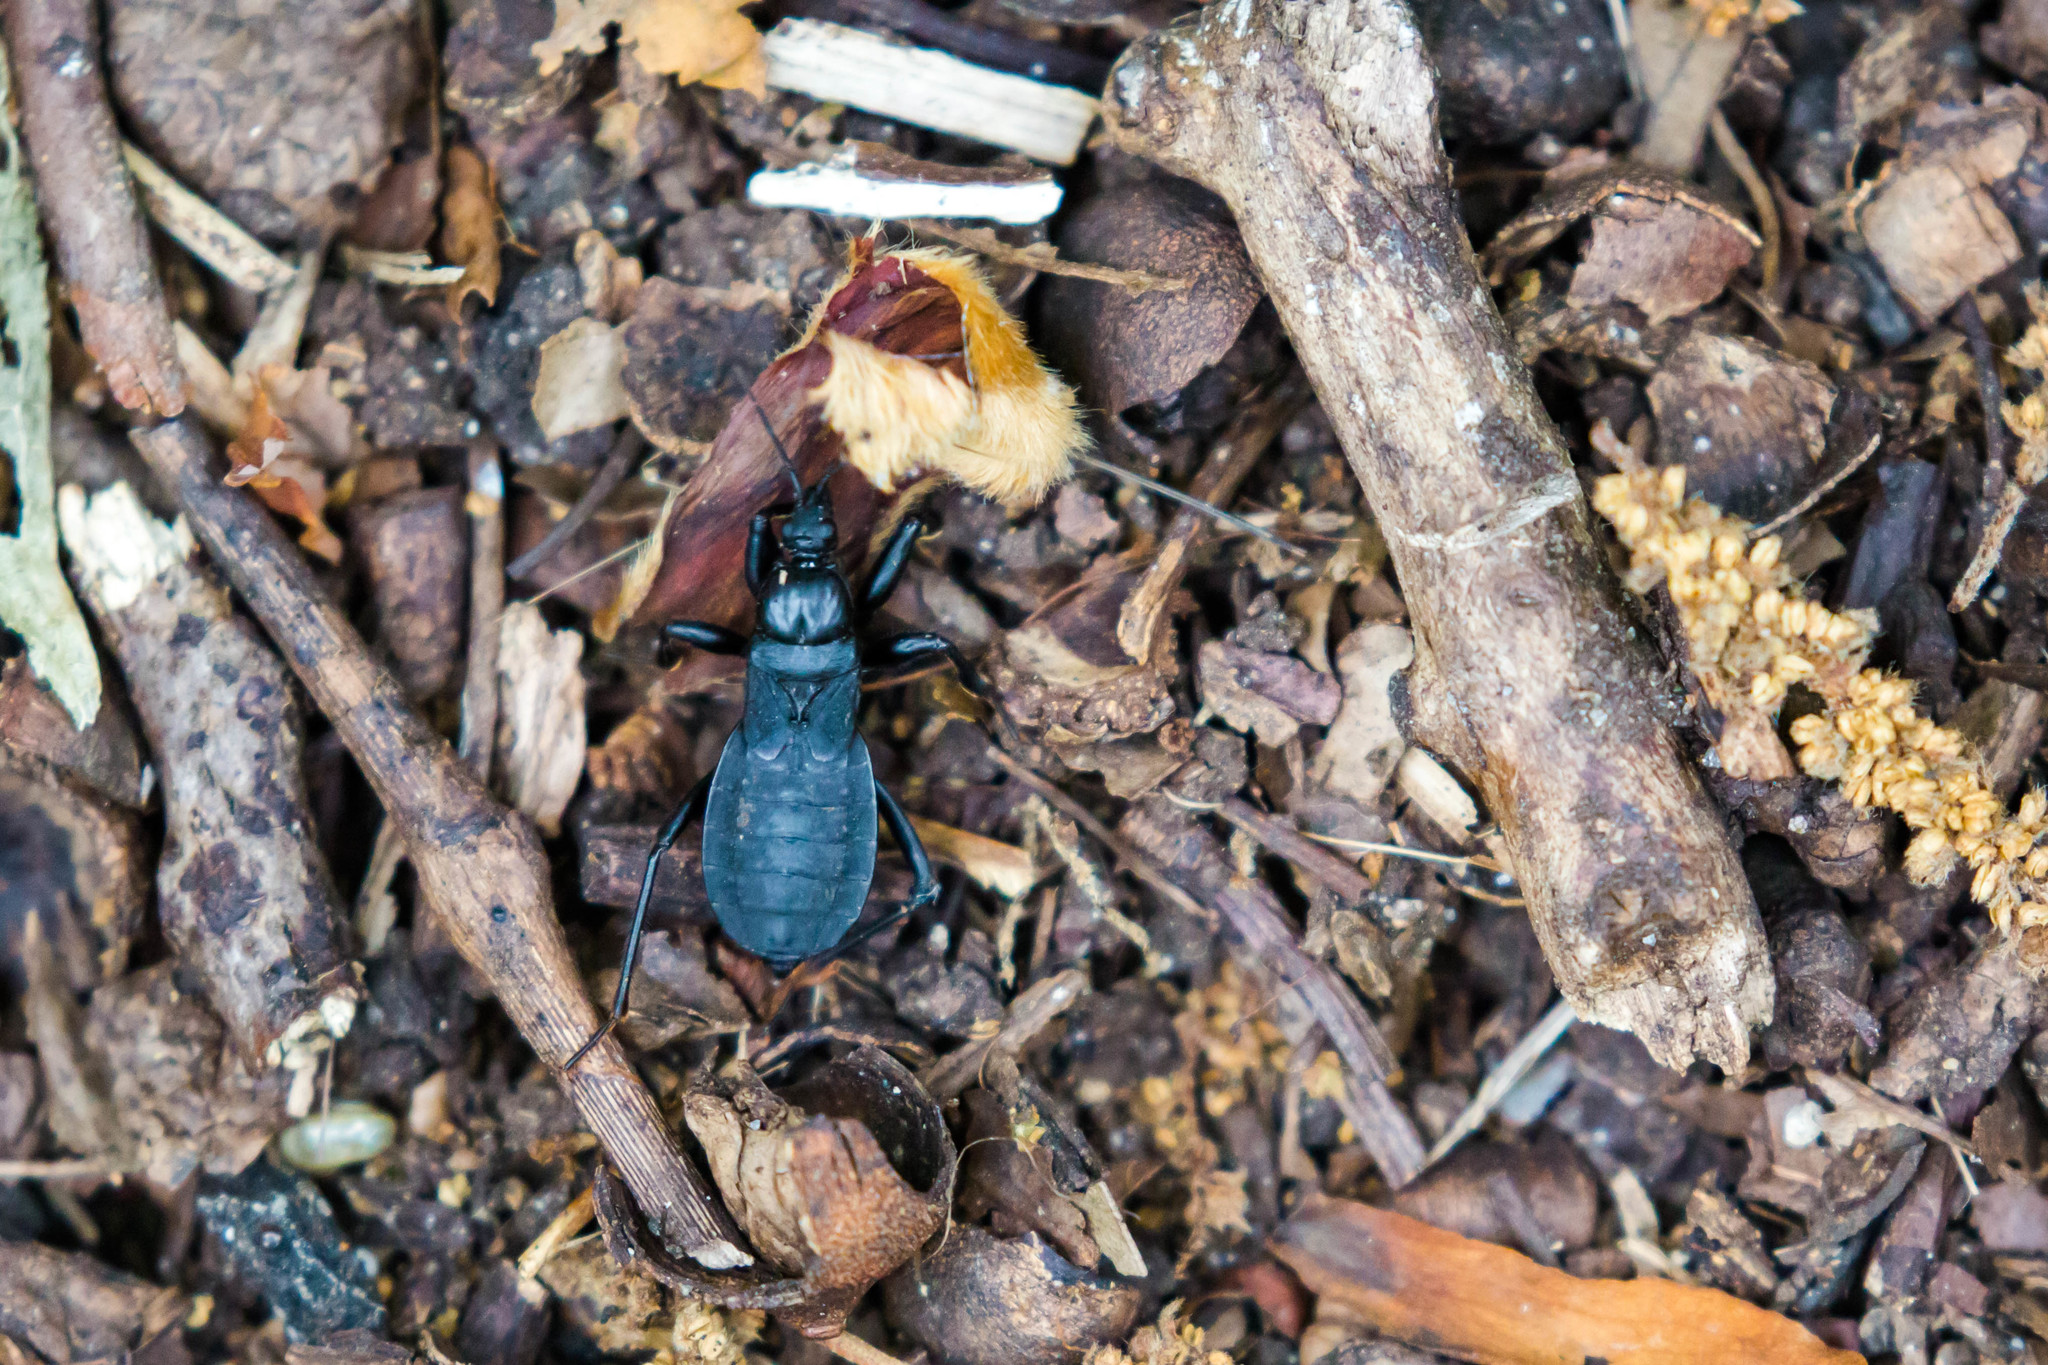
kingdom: Animalia
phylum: Arthropoda
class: Insecta
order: Hemiptera
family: Reduviidae
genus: Melanolestes
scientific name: Melanolestes picipes
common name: Assassin bug
